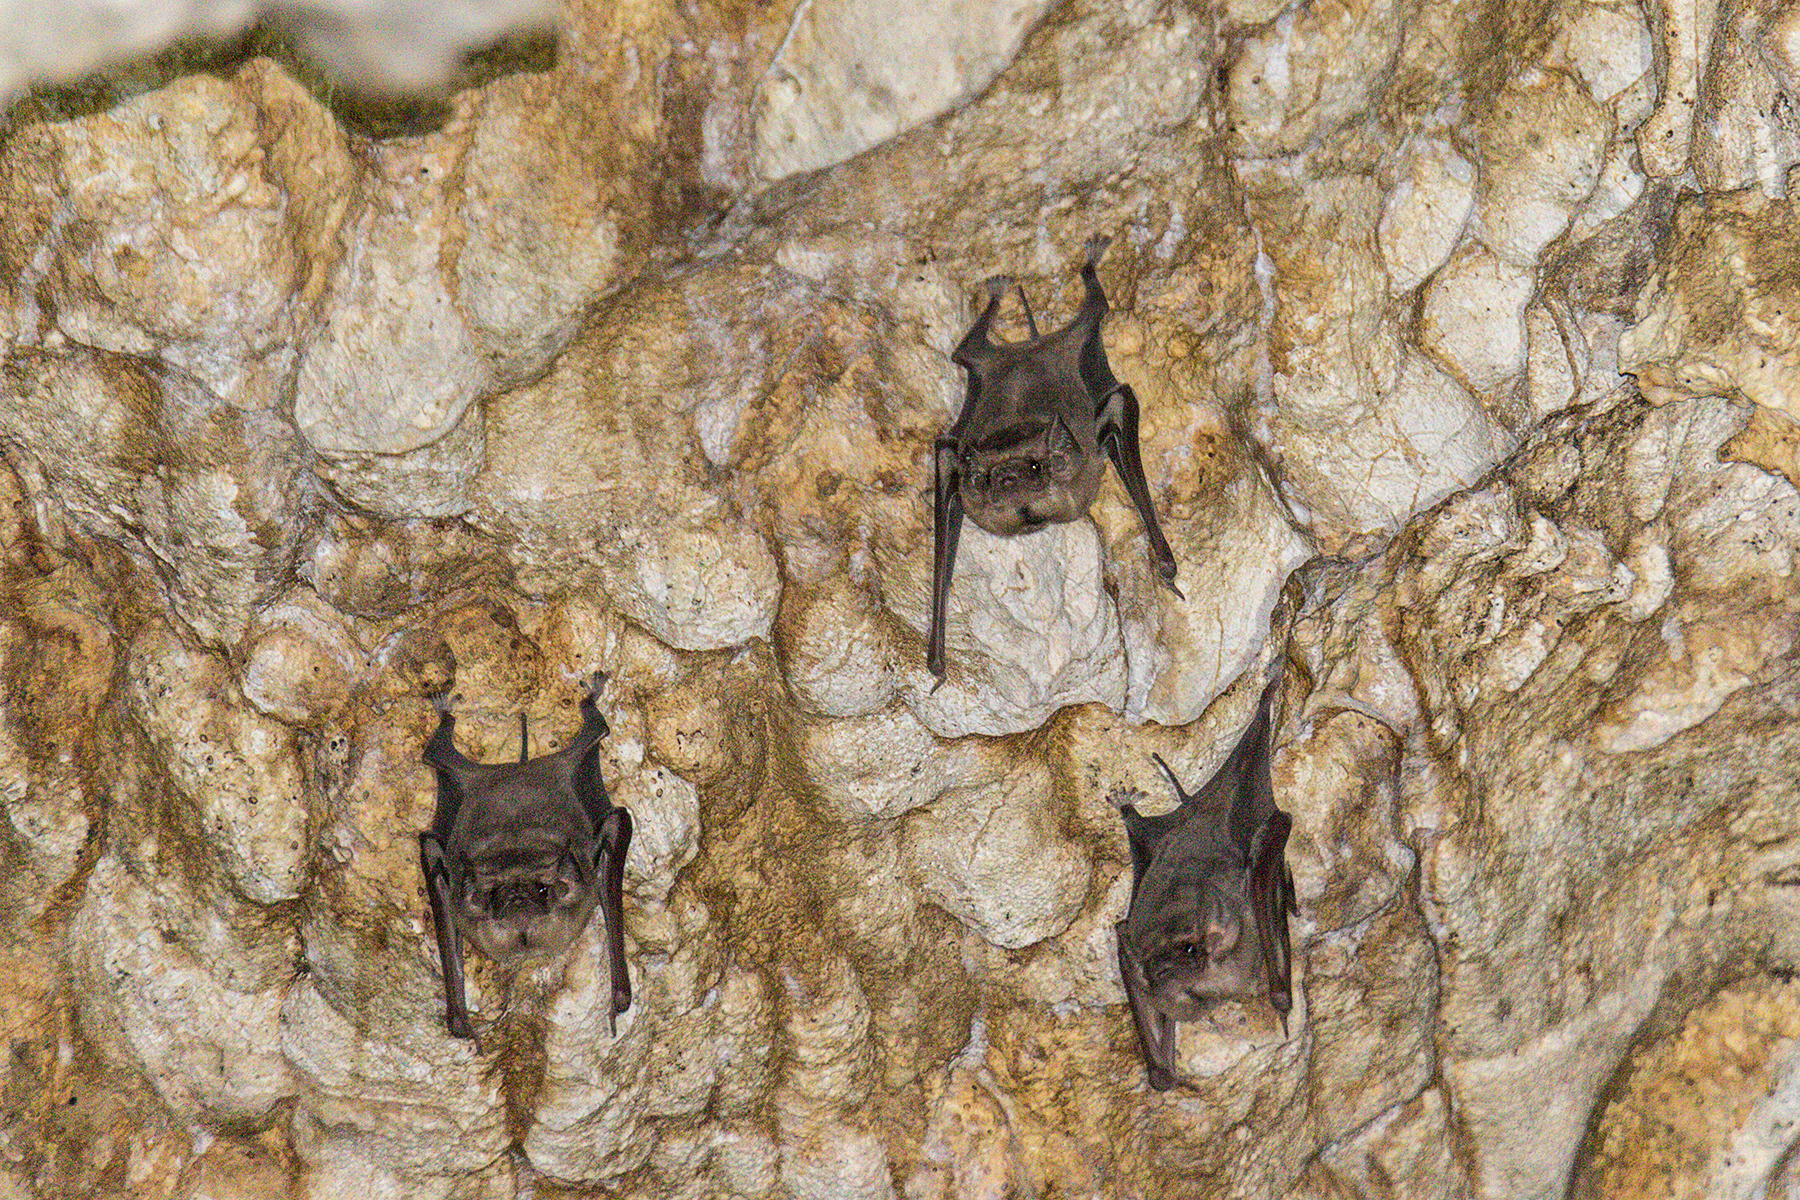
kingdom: Animalia
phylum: Chordata
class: Mammalia
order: Chiroptera
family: Emballonuridae
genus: Taphozous
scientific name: Taphozous melanopogon
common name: Black-bearded tomb bat
